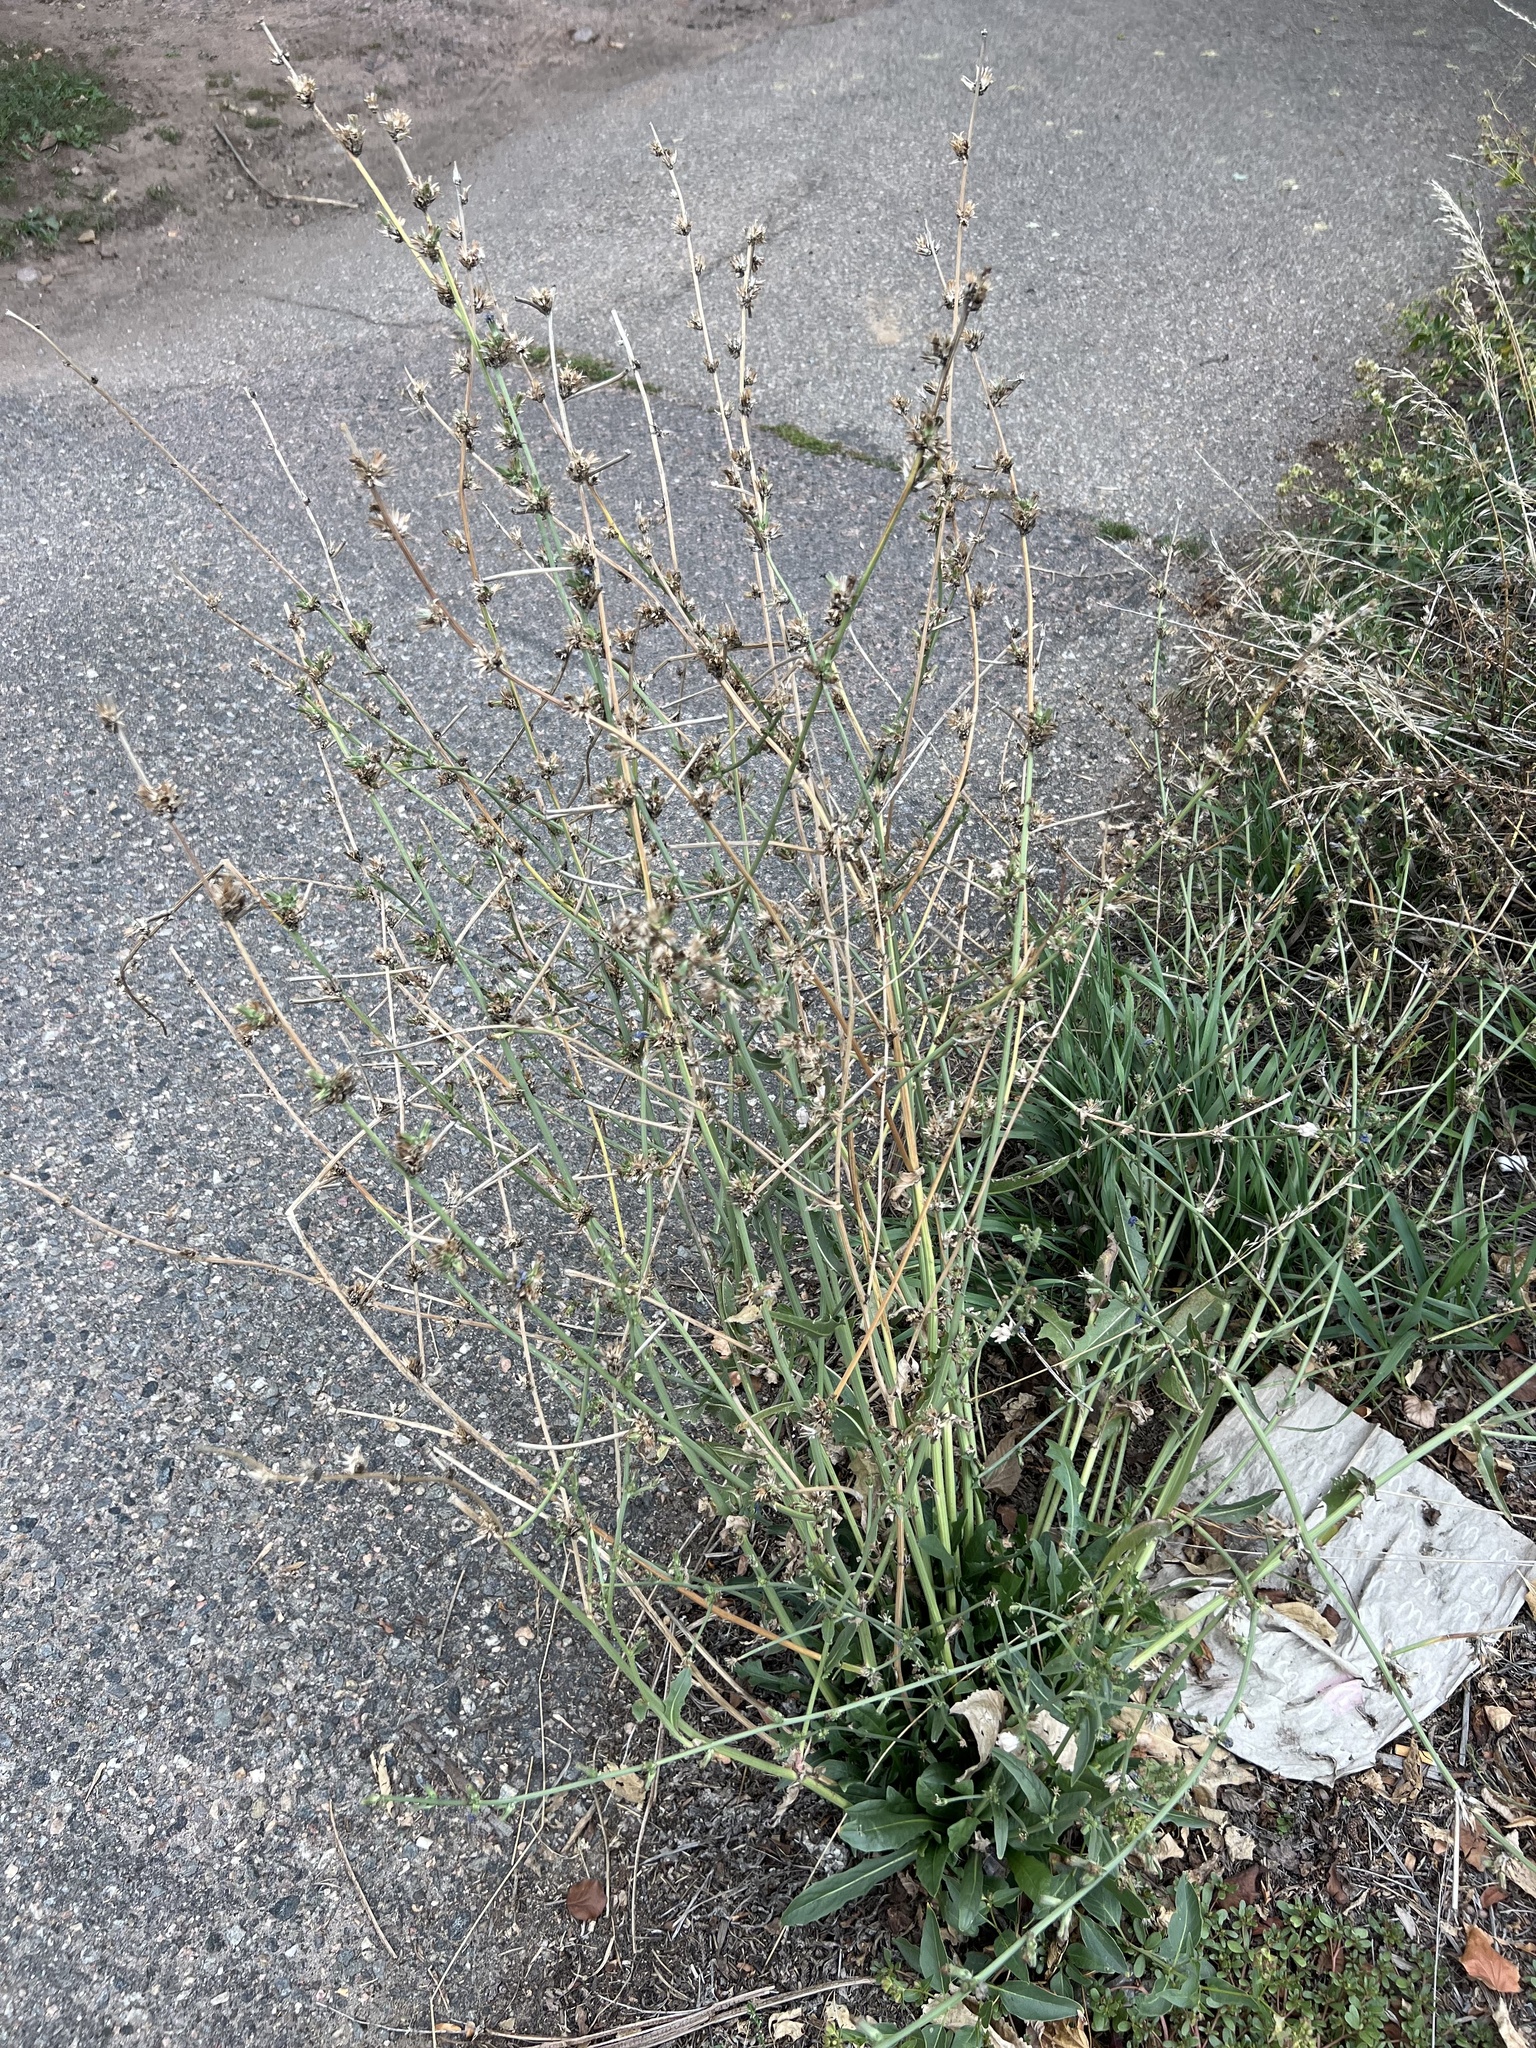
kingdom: Plantae
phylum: Tracheophyta
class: Magnoliopsida
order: Asterales
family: Asteraceae
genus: Cichorium
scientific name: Cichorium intybus
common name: Chicory
